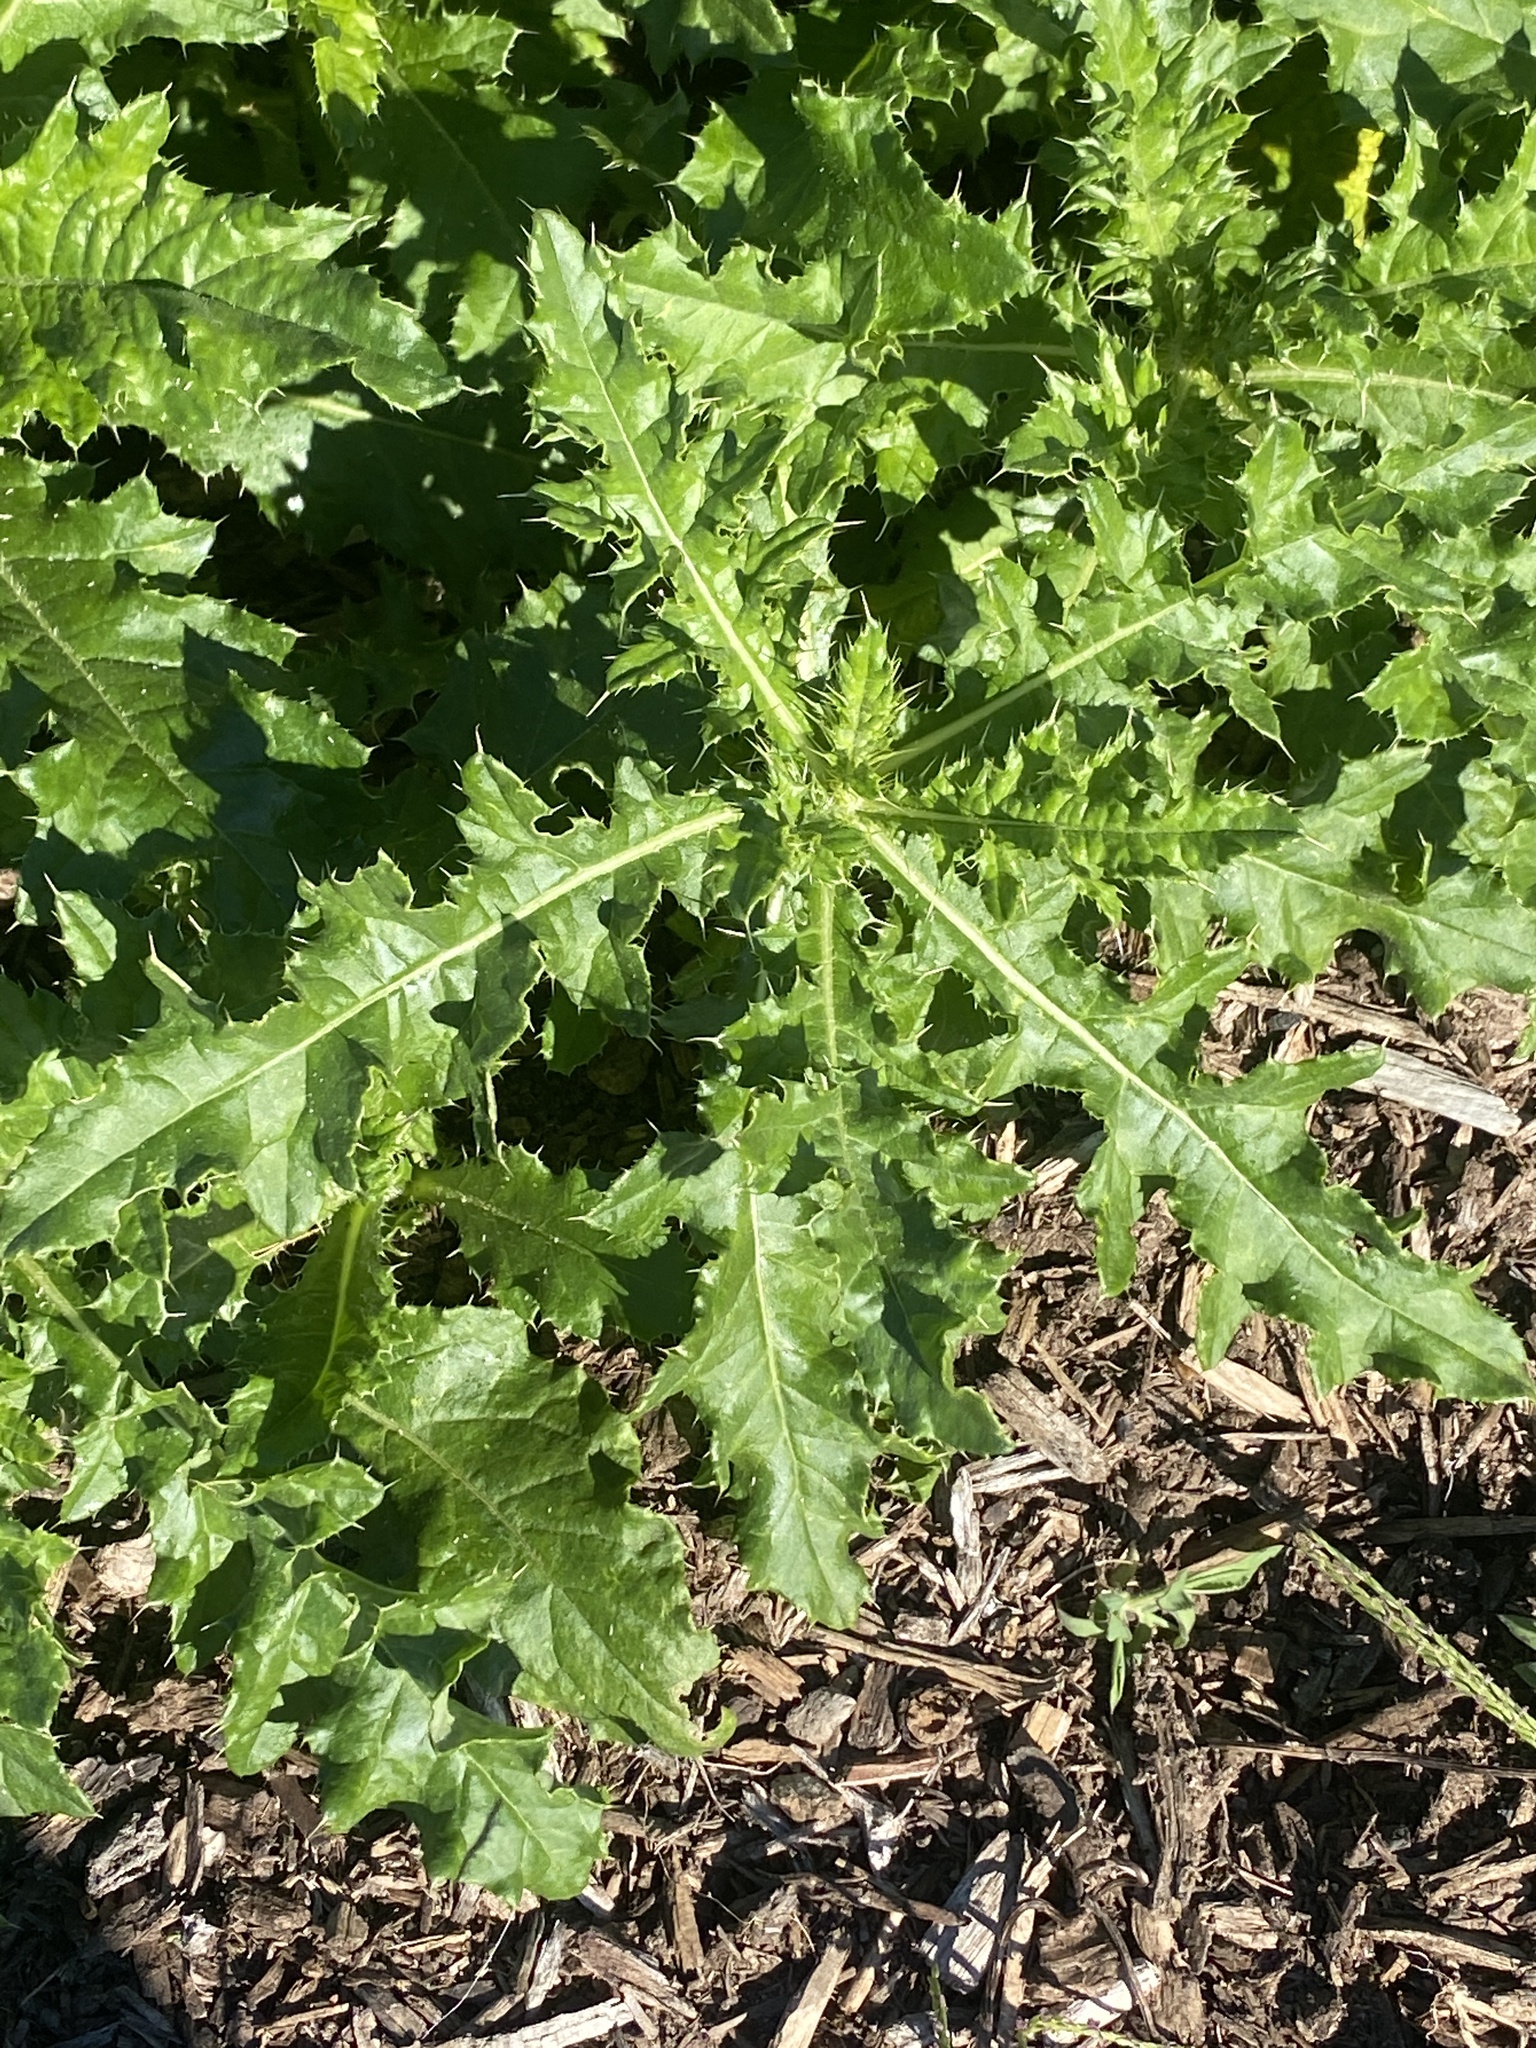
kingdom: Plantae
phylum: Tracheophyta
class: Magnoliopsida
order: Asterales
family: Asteraceae
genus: Cirsium
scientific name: Cirsium arvense
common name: Creeping thistle
